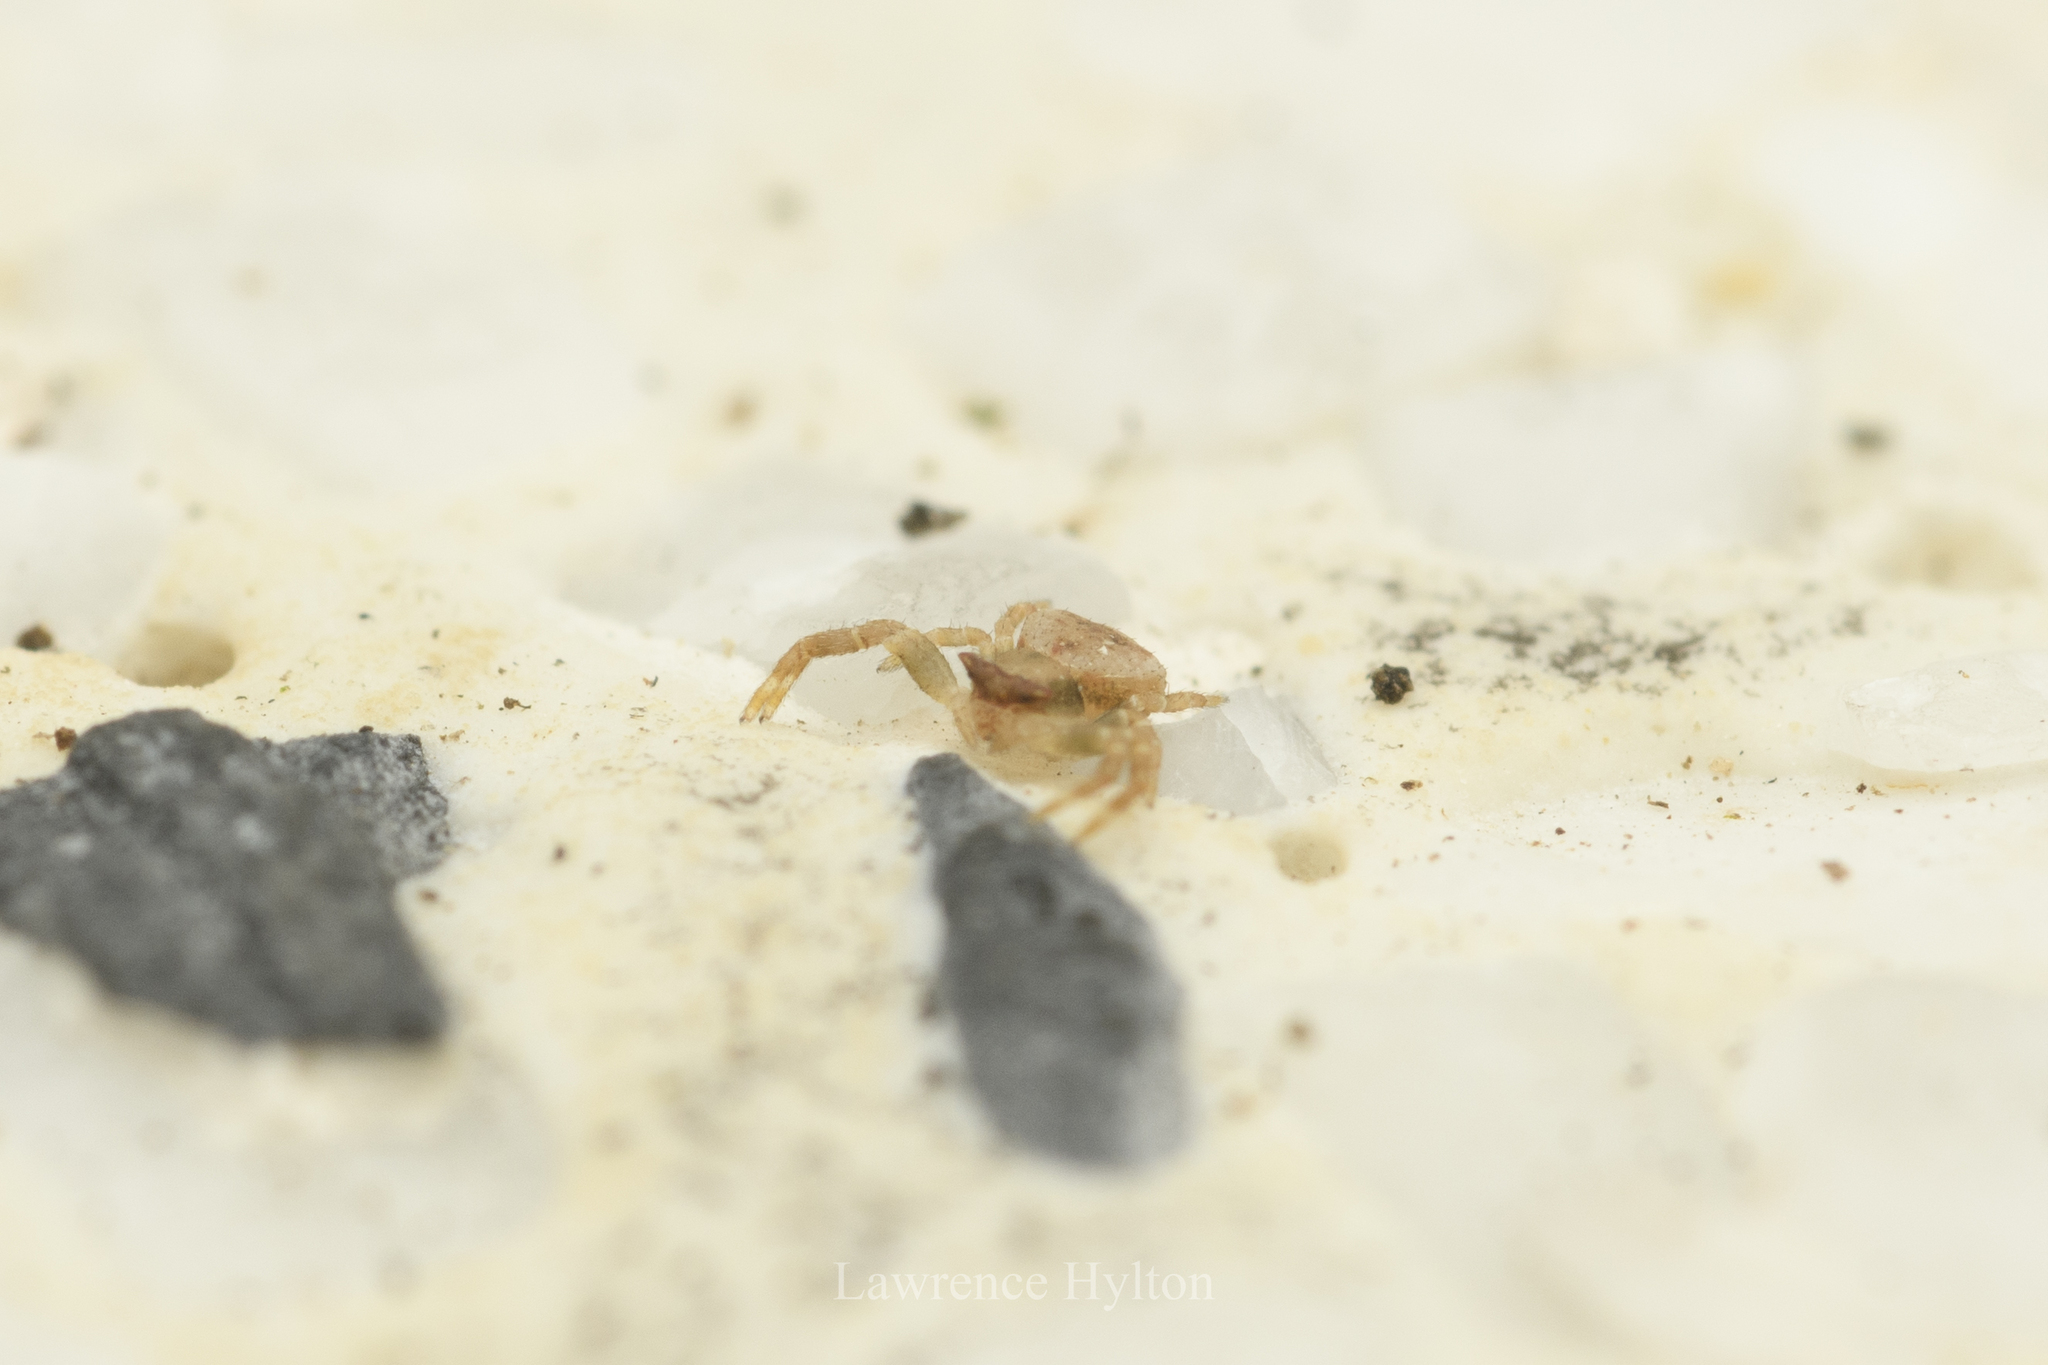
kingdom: Animalia
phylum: Arthropoda
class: Arachnida
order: Araneae
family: Thomisidae
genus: Thomisus
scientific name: Thomisus labefactus
